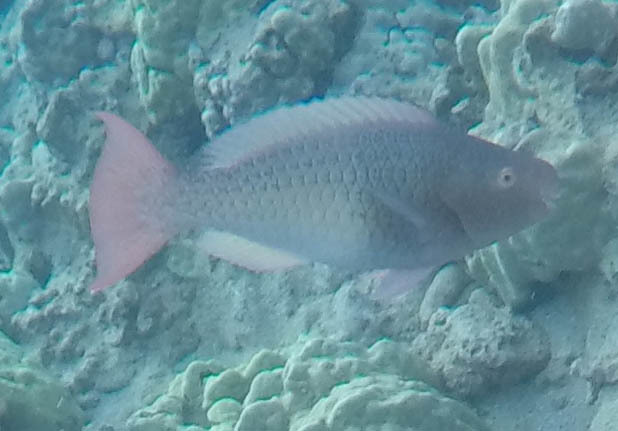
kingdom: Animalia
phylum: Chordata
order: Perciformes
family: Scaridae
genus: Scarus
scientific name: Scarus rubroviolaceus
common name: Ember parrotfish
